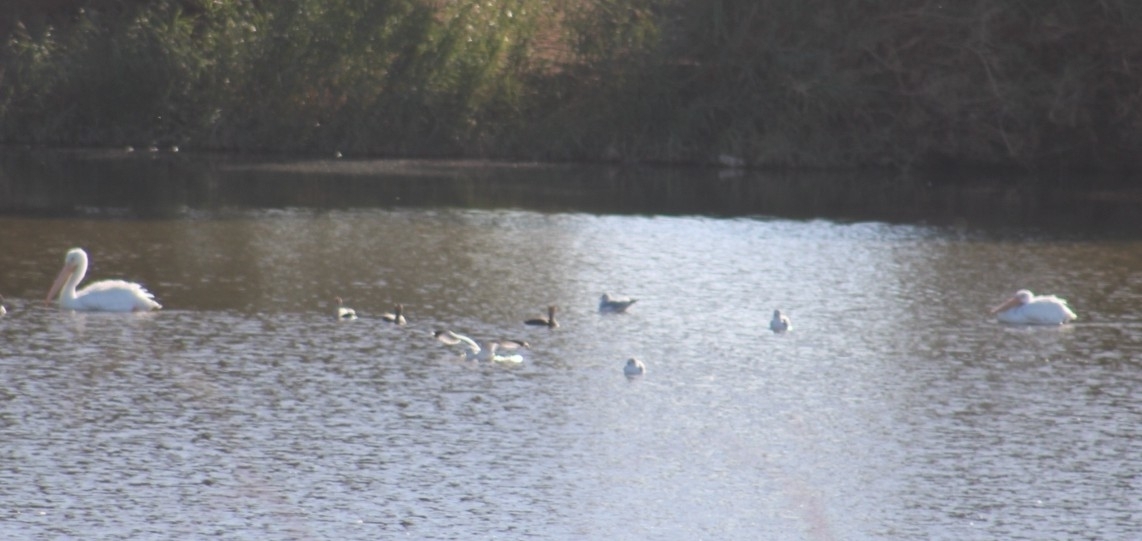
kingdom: Animalia
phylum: Chordata
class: Aves
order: Pelecaniformes
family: Pelecanidae
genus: Pelecanus
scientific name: Pelecanus erythrorhynchos
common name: American white pelican
